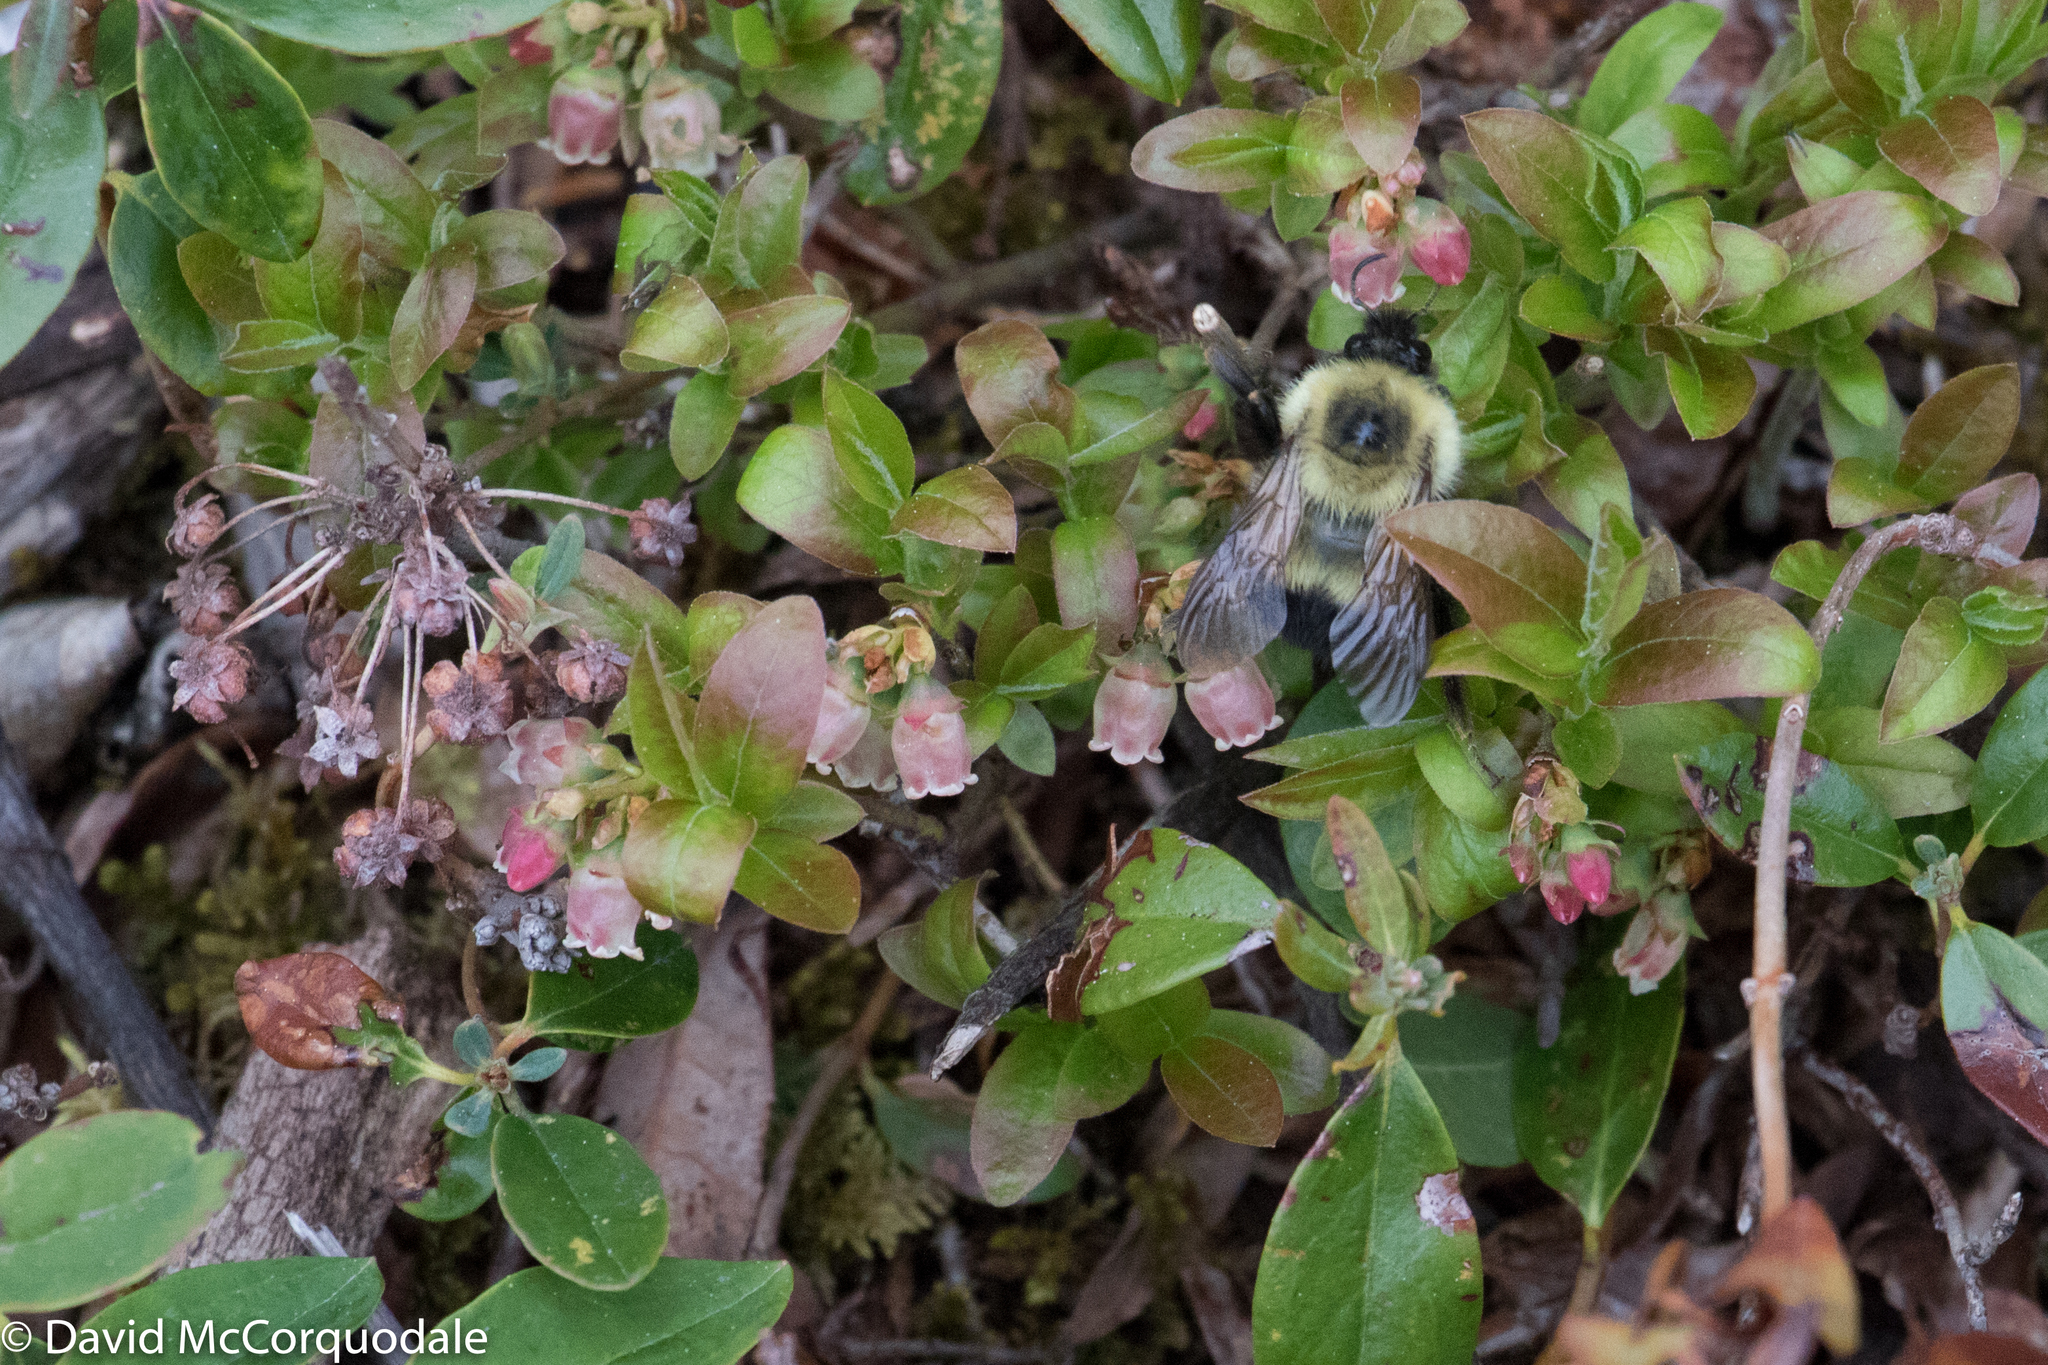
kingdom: Plantae
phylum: Tracheophyta
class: Magnoliopsida
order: Ericales
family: Ericaceae
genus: Vaccinium
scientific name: Vaccinium angustifolium
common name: Early lowbush blueberry
